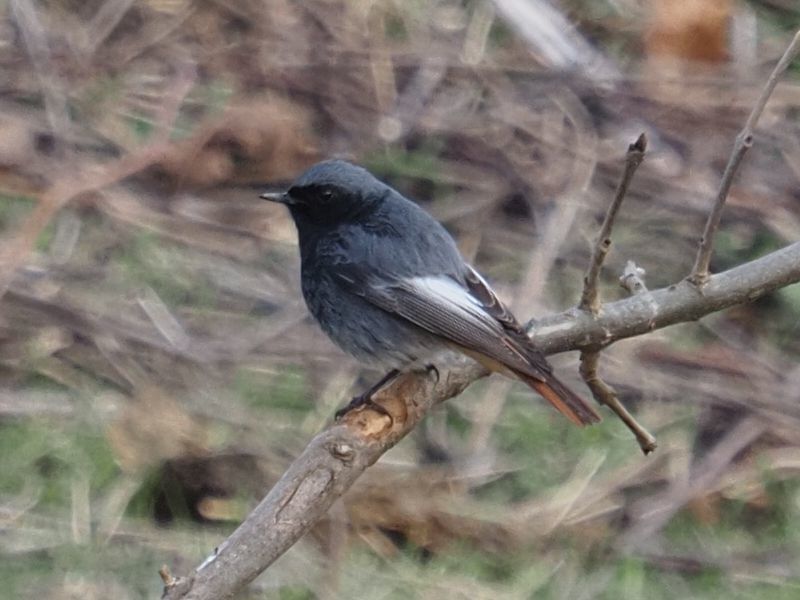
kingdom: Animalia
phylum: Chordata
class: Aves
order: Passeriformes
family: Muscicapidae
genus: Phoenicurus
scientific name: Phoenicurus ochruros
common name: Black redstart
